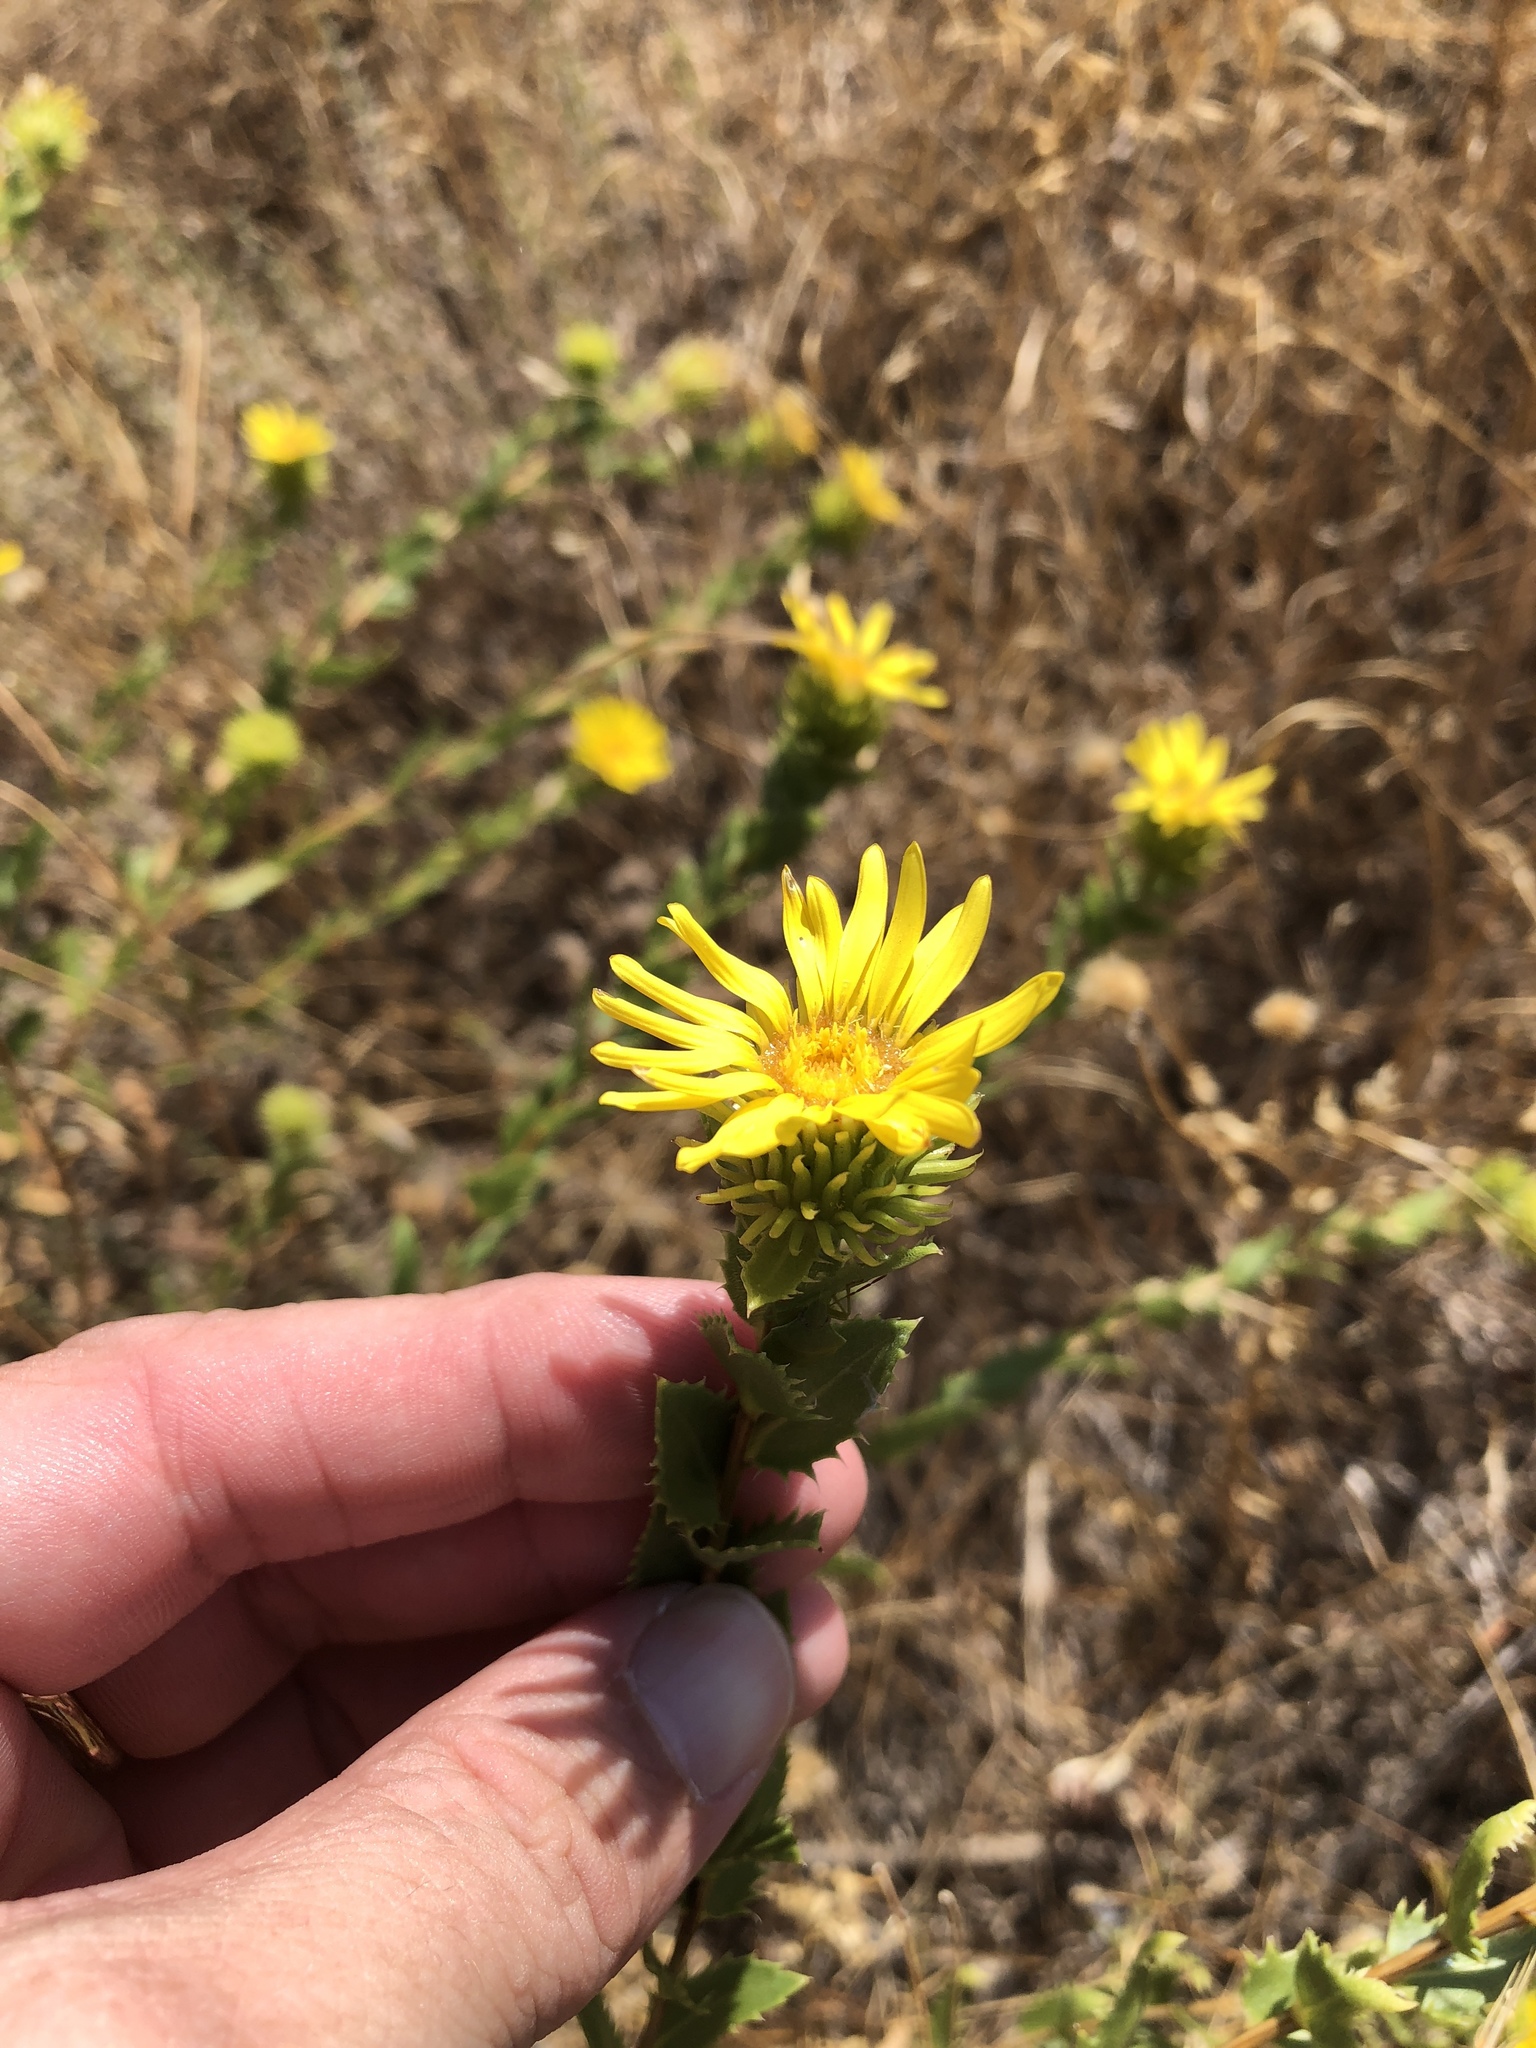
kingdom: Plantae
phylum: Tracheophyta
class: Magnoliopsida
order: Asterales
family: Asteraceae
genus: Grindelia
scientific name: Grindelia lanceolata
